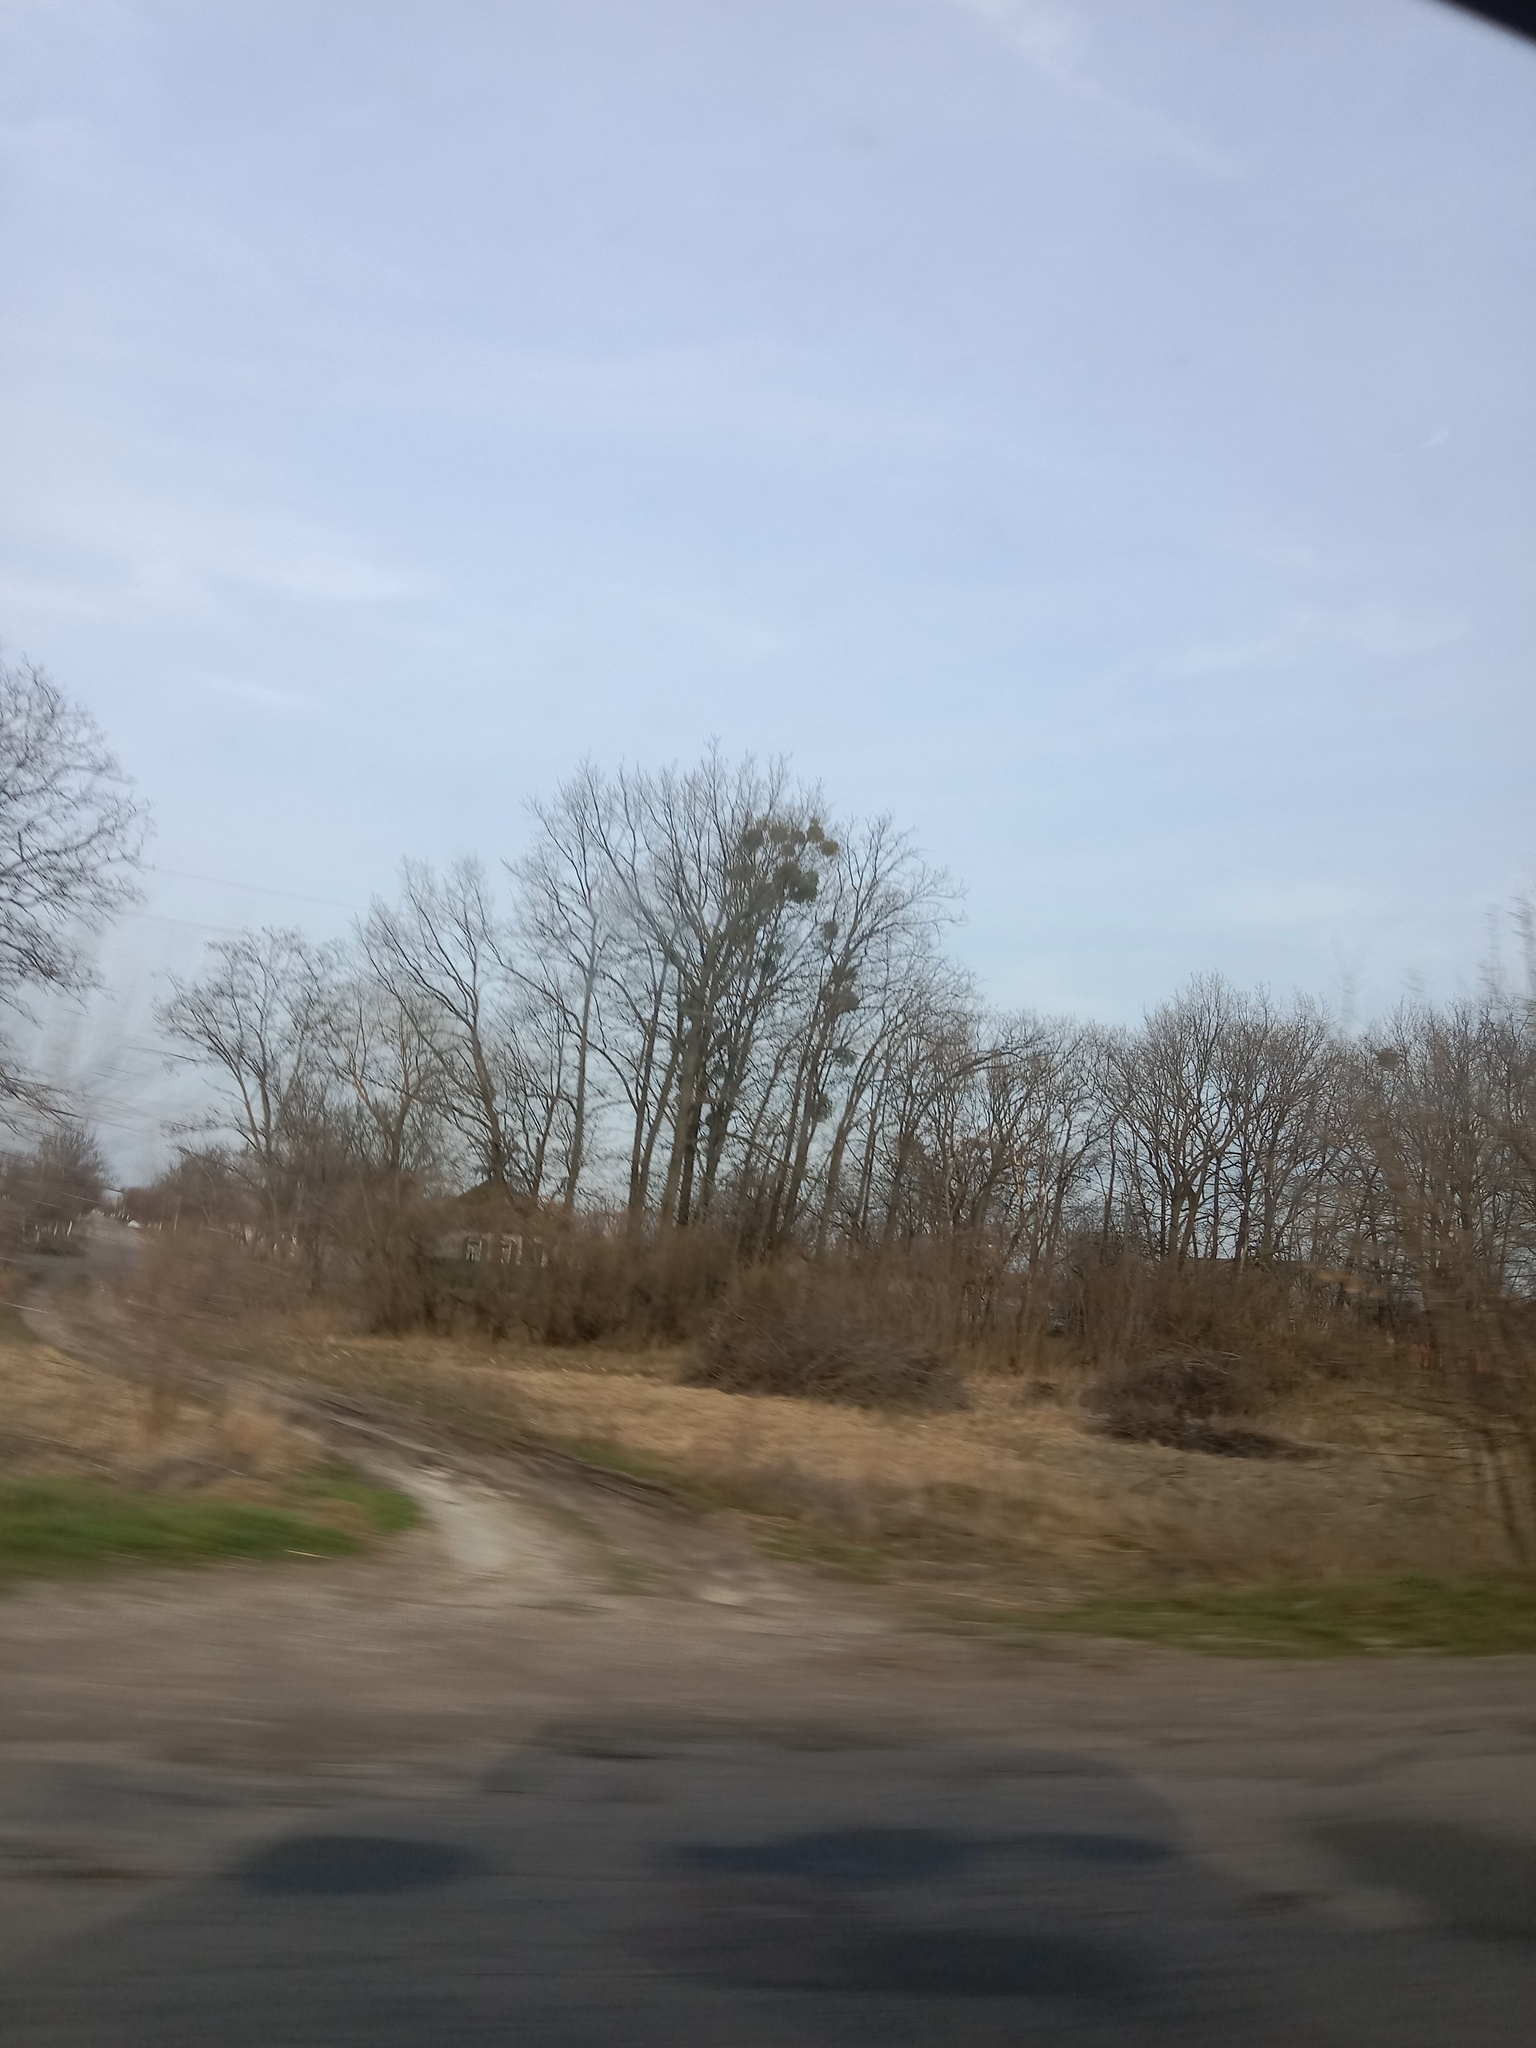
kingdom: Plantae
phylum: Tracheophyta
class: Magnoliopsida
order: Santalales
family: Viscaceae
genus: Viscum
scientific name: Viscum album
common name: Mistletoe
